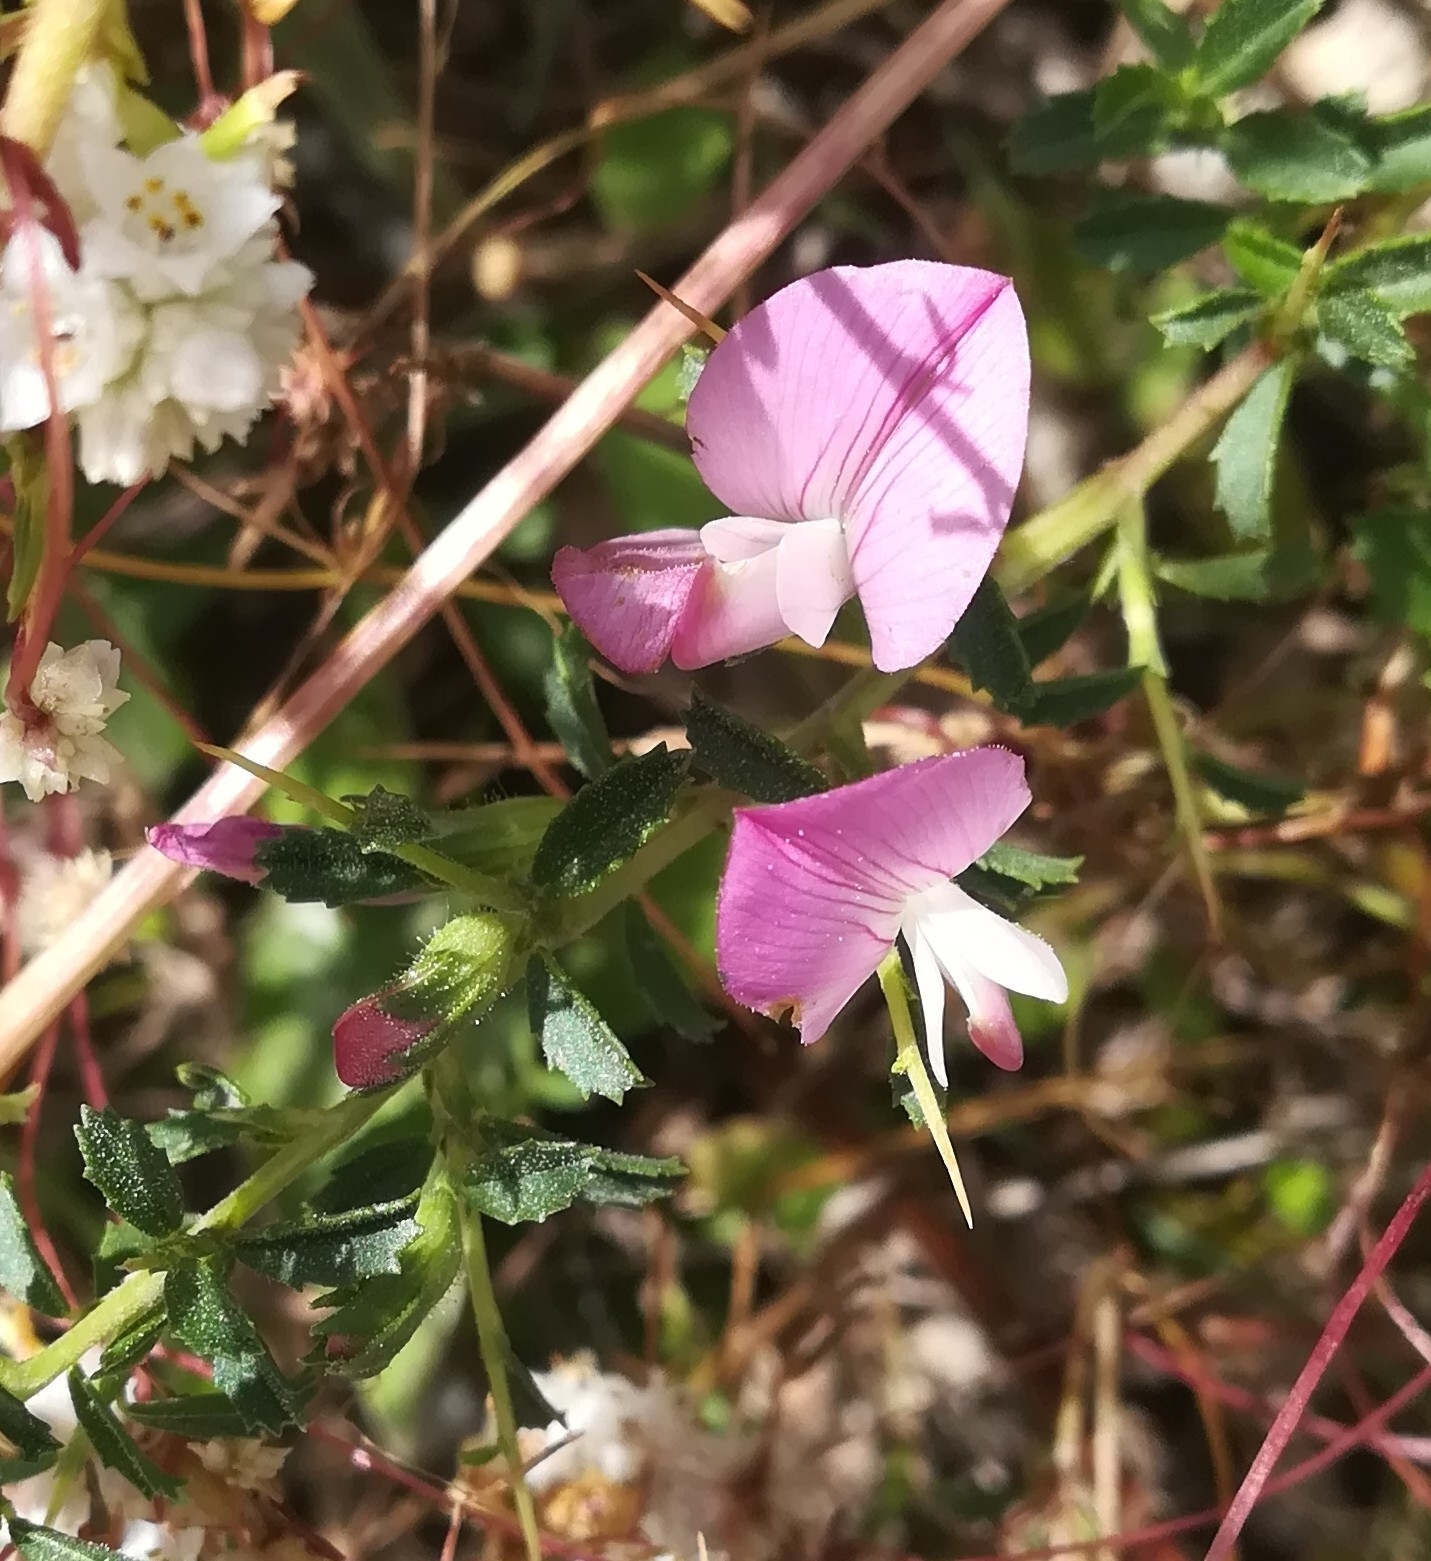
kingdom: Plantae
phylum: Tracheophyta
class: Magnoliopsida
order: Fabales
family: Fabaceae
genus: Ononis
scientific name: Ononis spinosa
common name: Spiny restharrow
